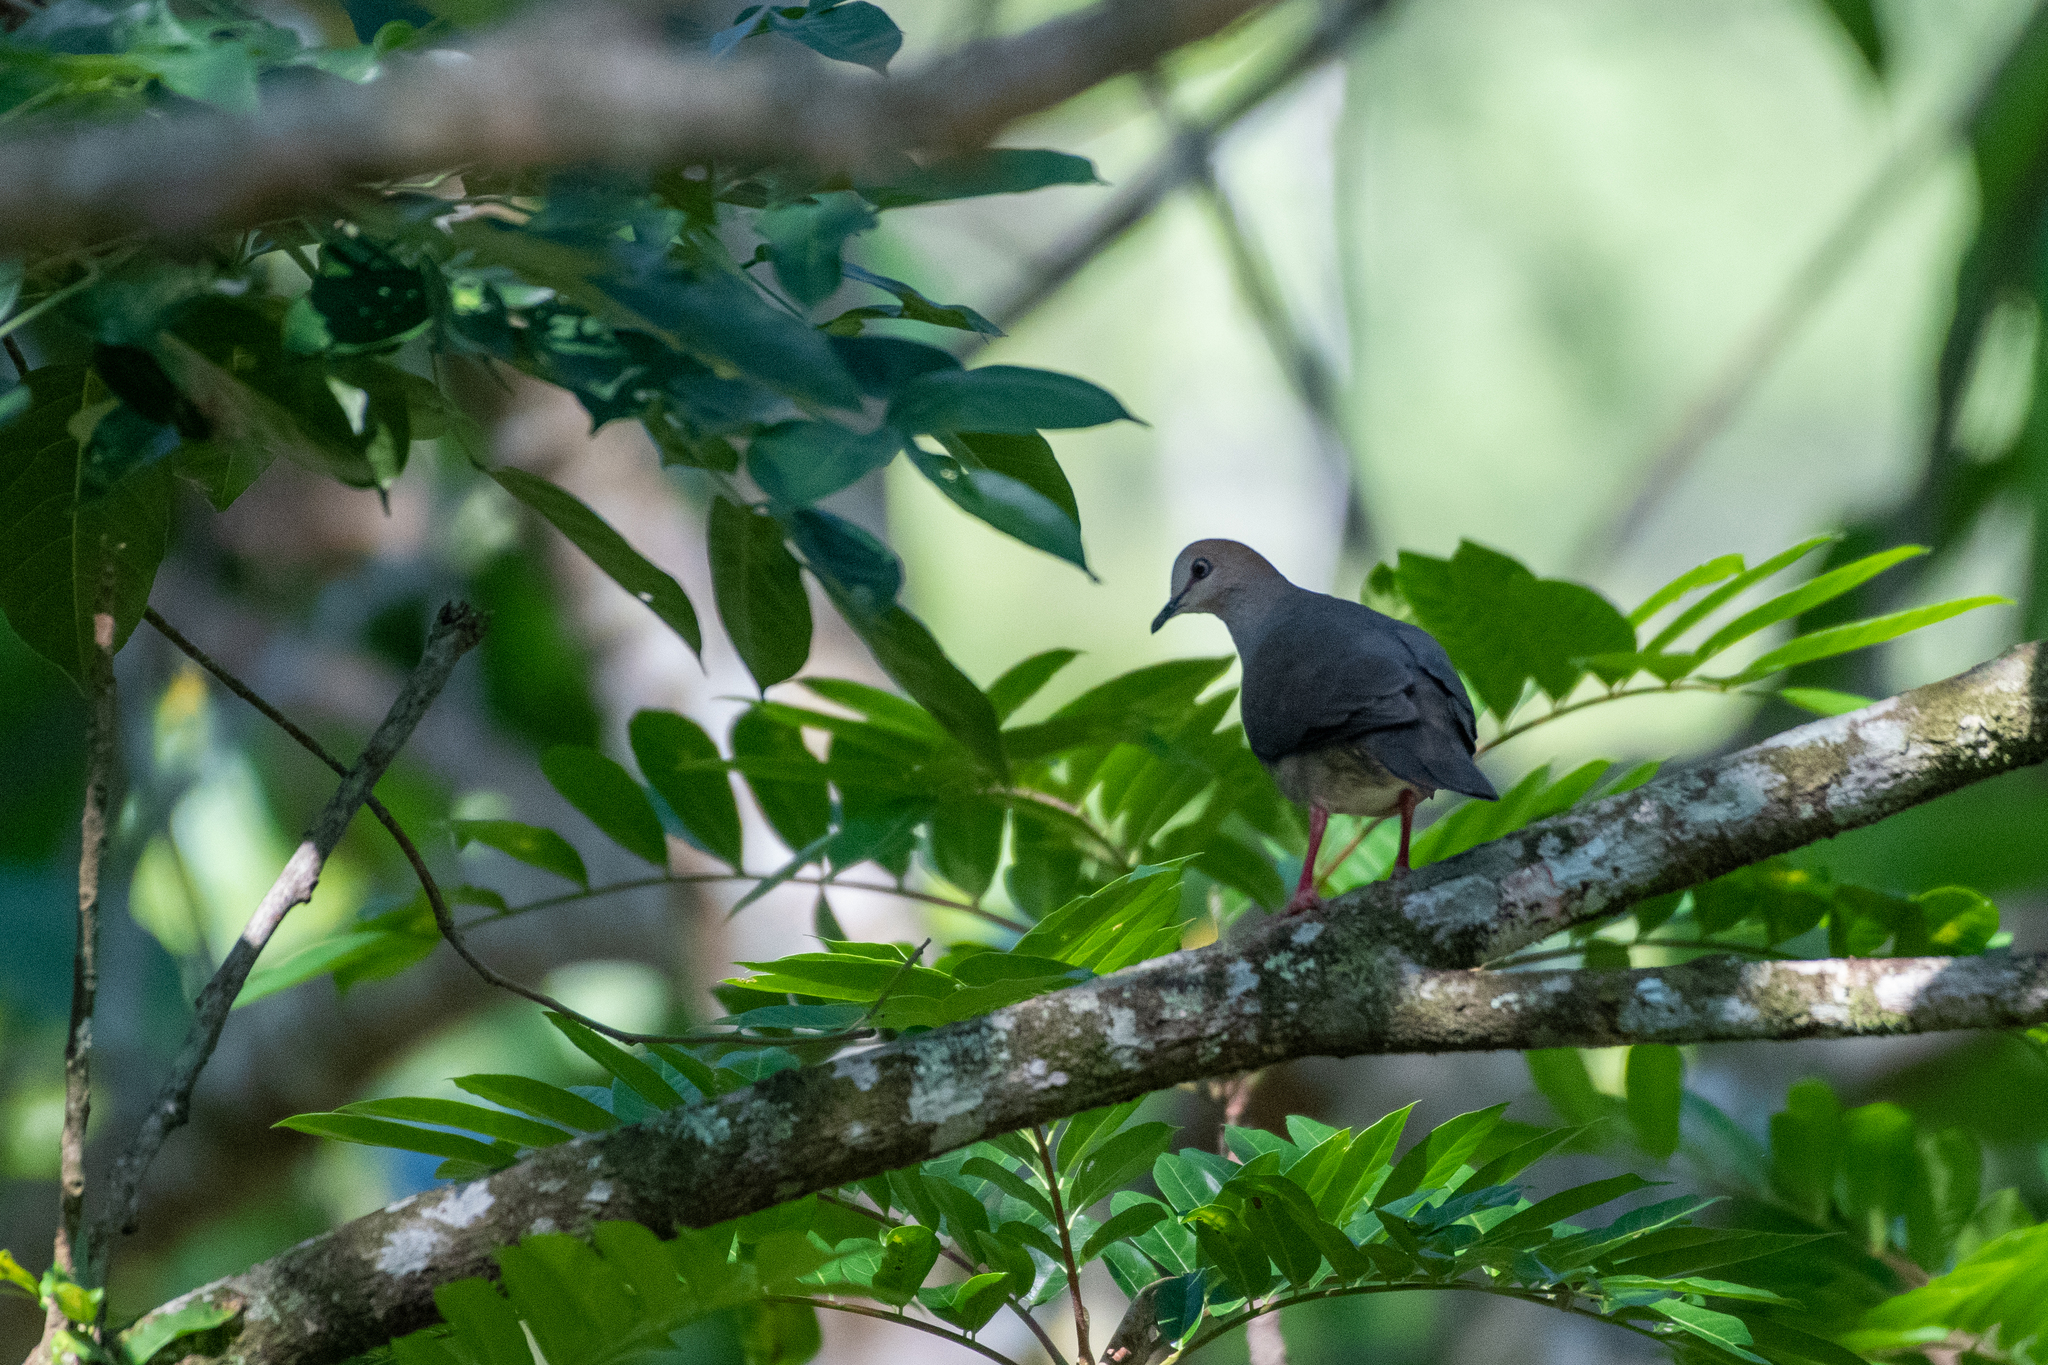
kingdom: Animalia
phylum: Chordata
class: Aves
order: Columbiformes
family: Columbidae
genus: Leptotila
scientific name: Leptotila cassinii
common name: Grey-chested dove
